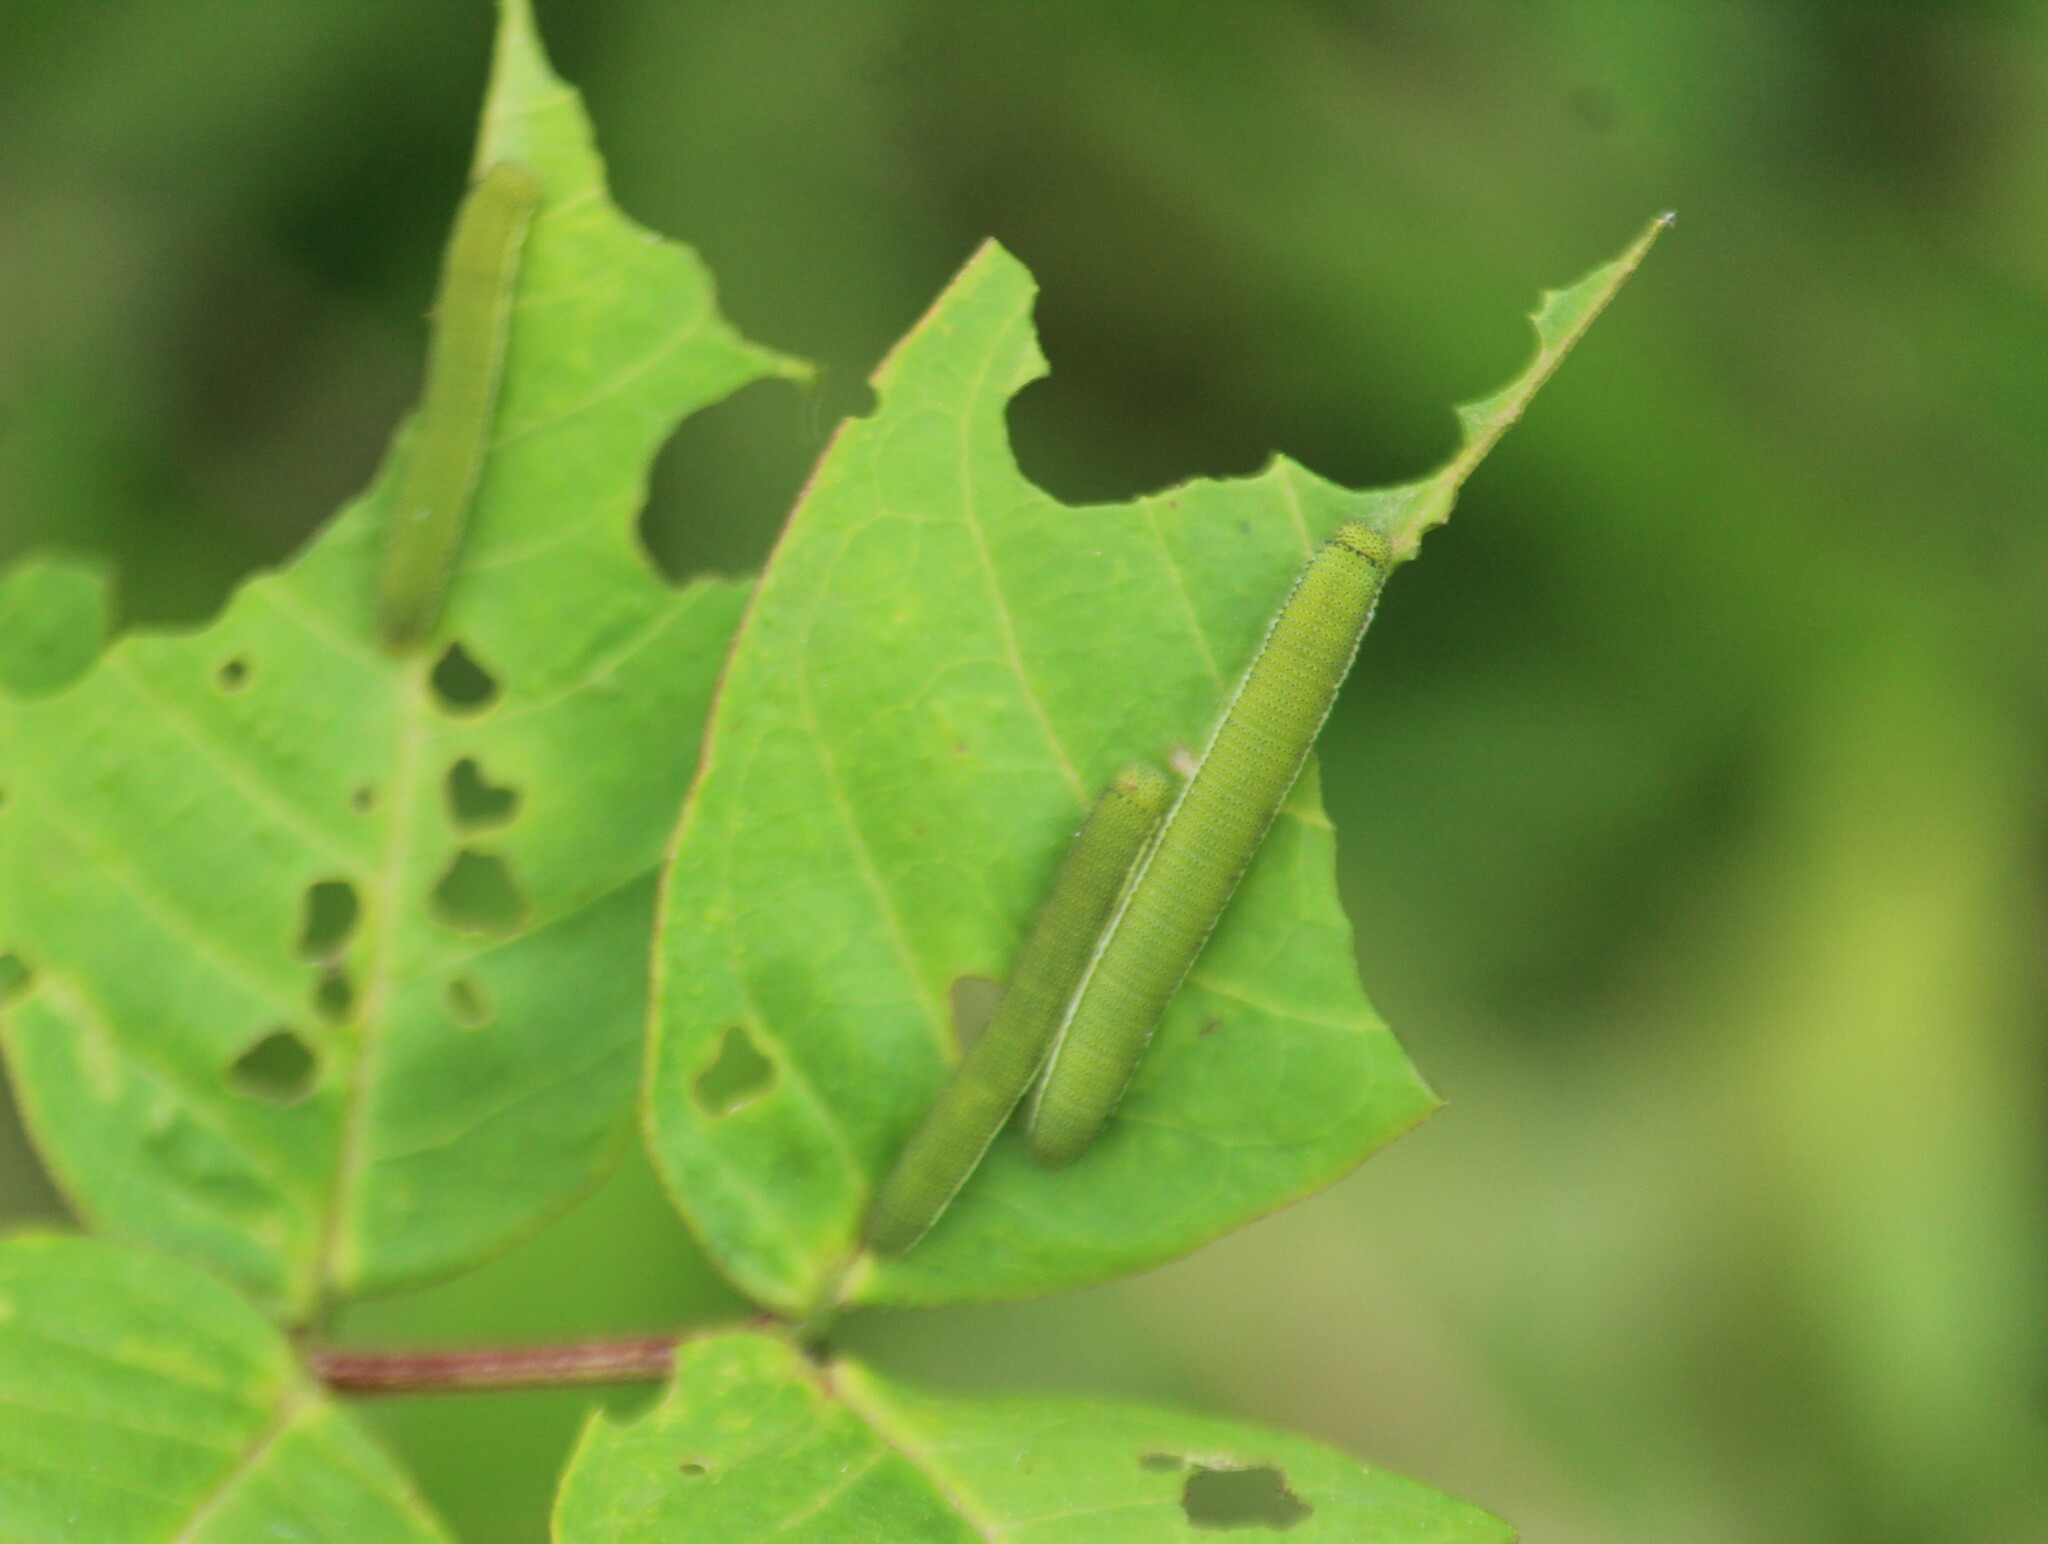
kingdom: Animalia
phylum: Arthropoda
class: Insecta
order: Lepidoptera
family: Pieridae
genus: Catopsilia
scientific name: Catopsilia pyranthe
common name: Mottled emigrant
